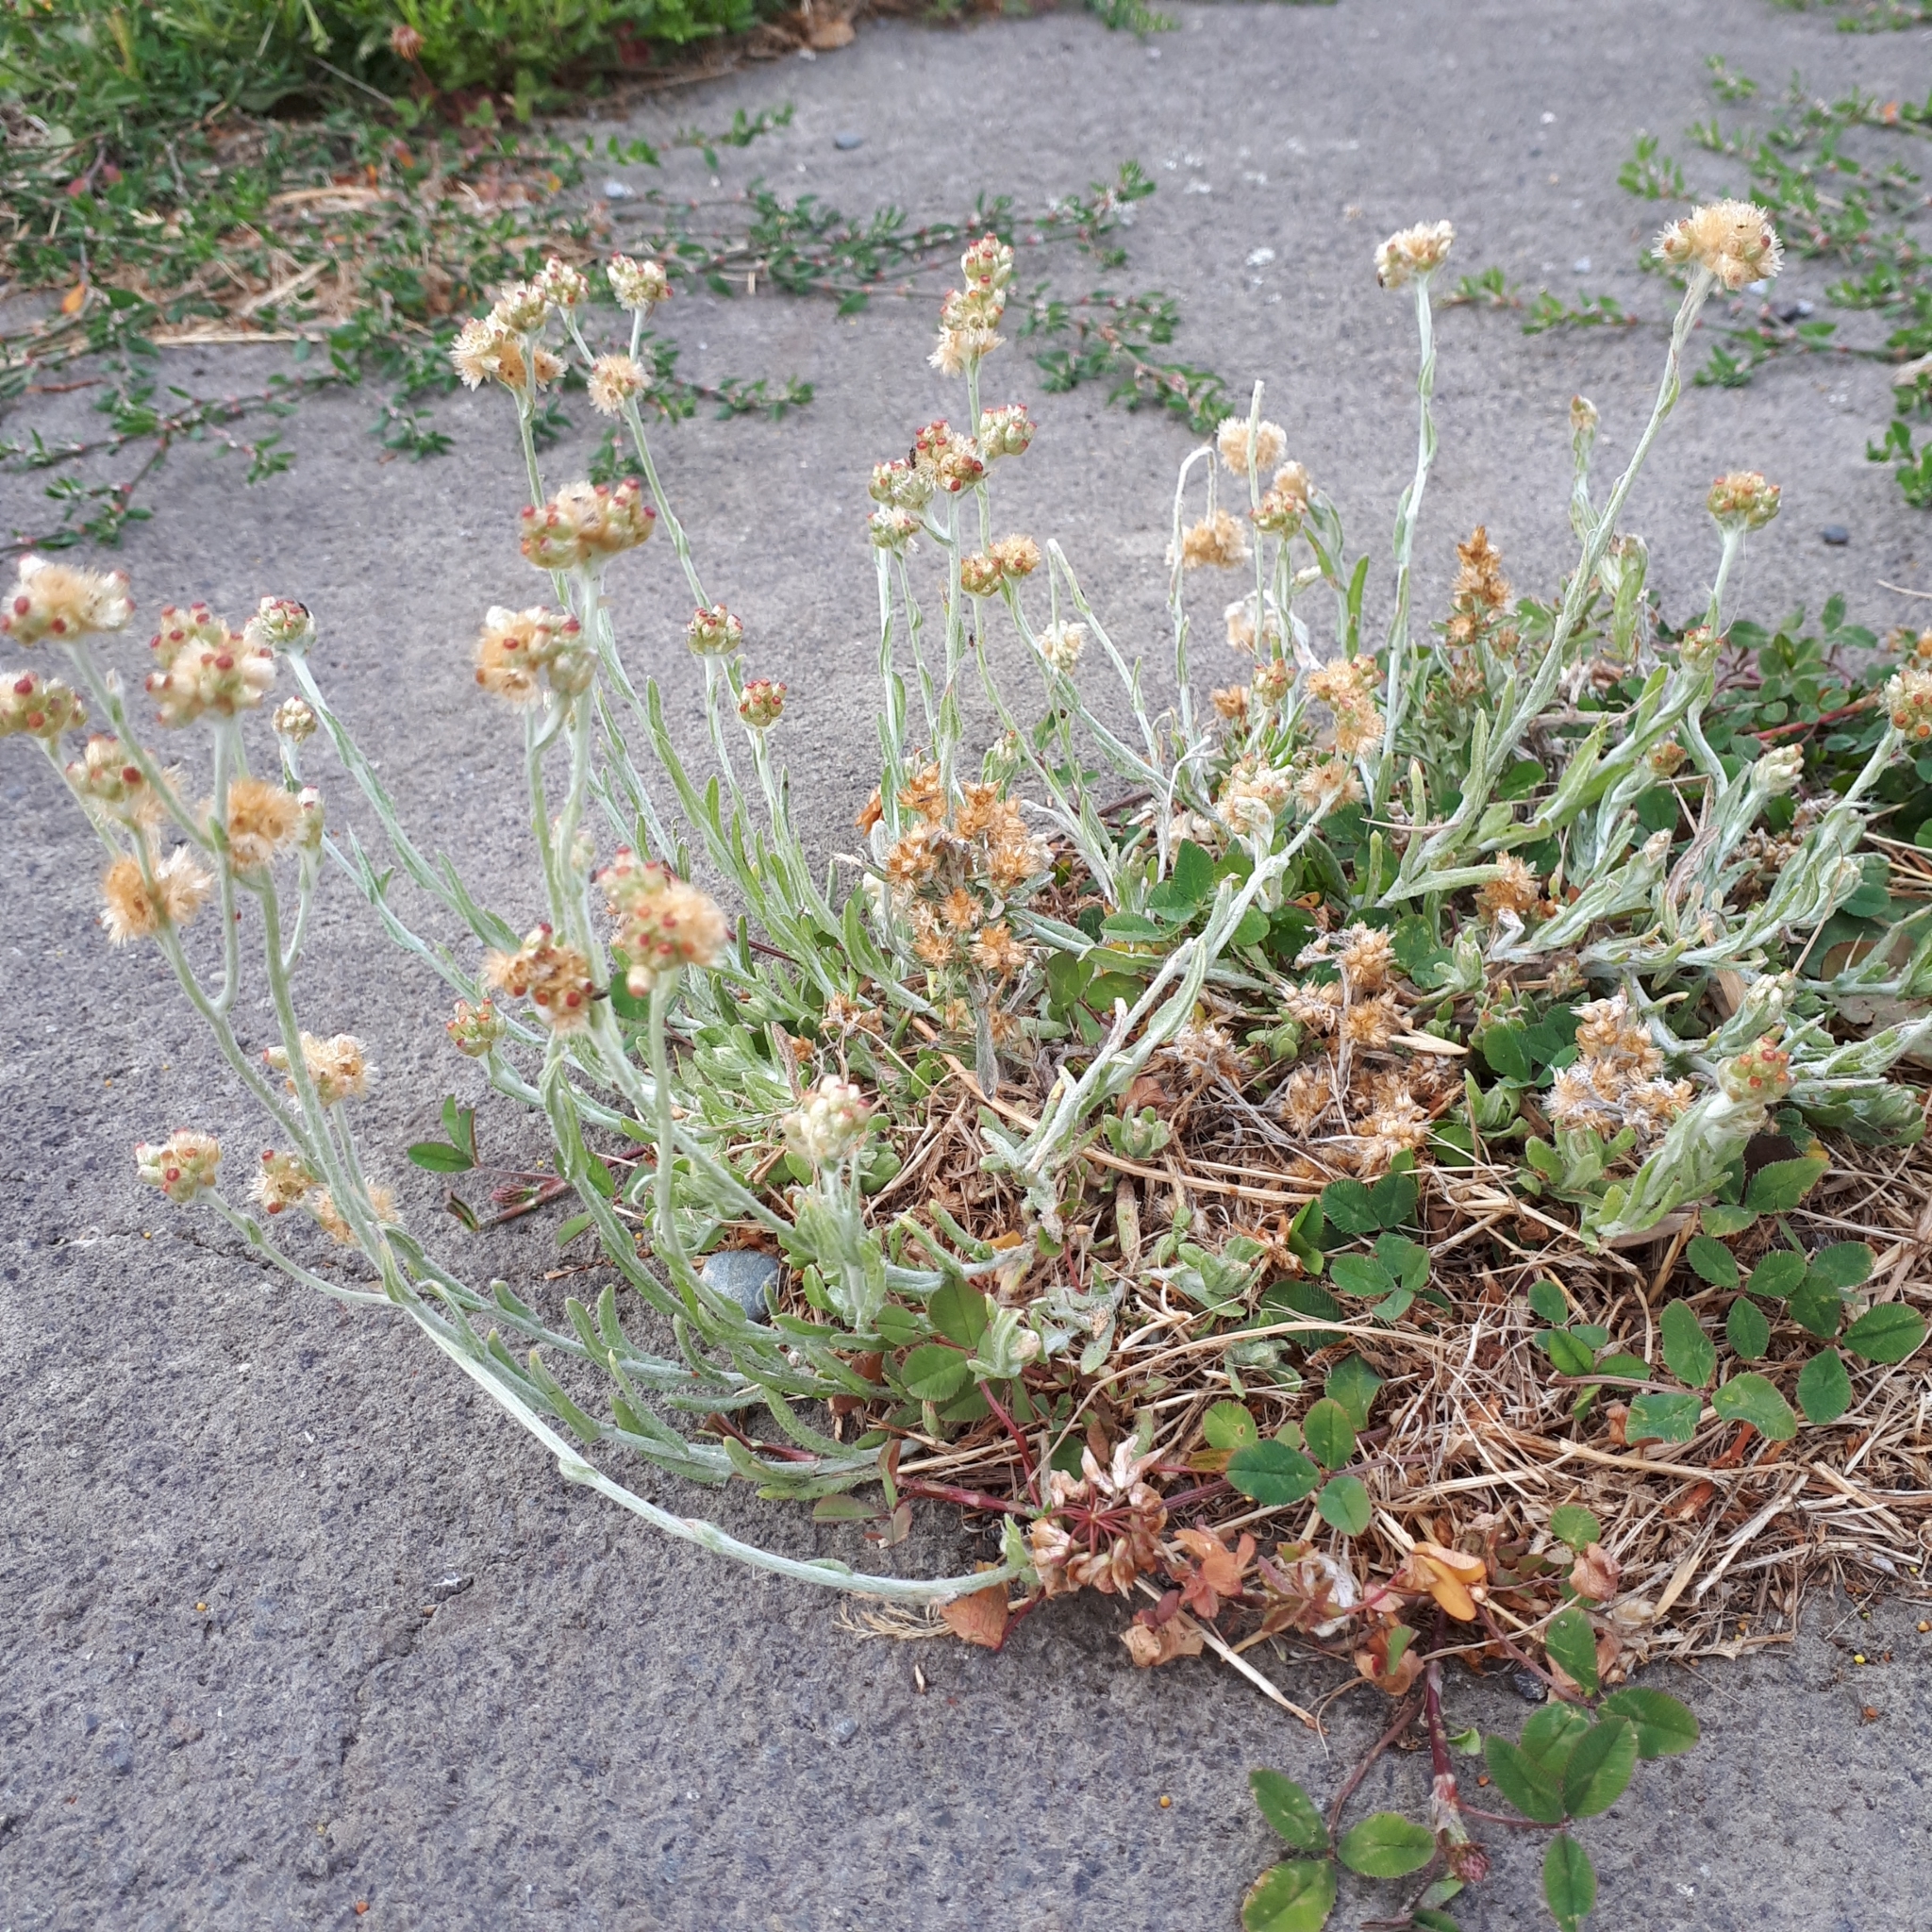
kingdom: Plantae
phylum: Tracheophyta
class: Magnoliopsida
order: Asterales
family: Asteraceae
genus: Helichrysum
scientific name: Helichrysum luteoalbum
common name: Daisy
